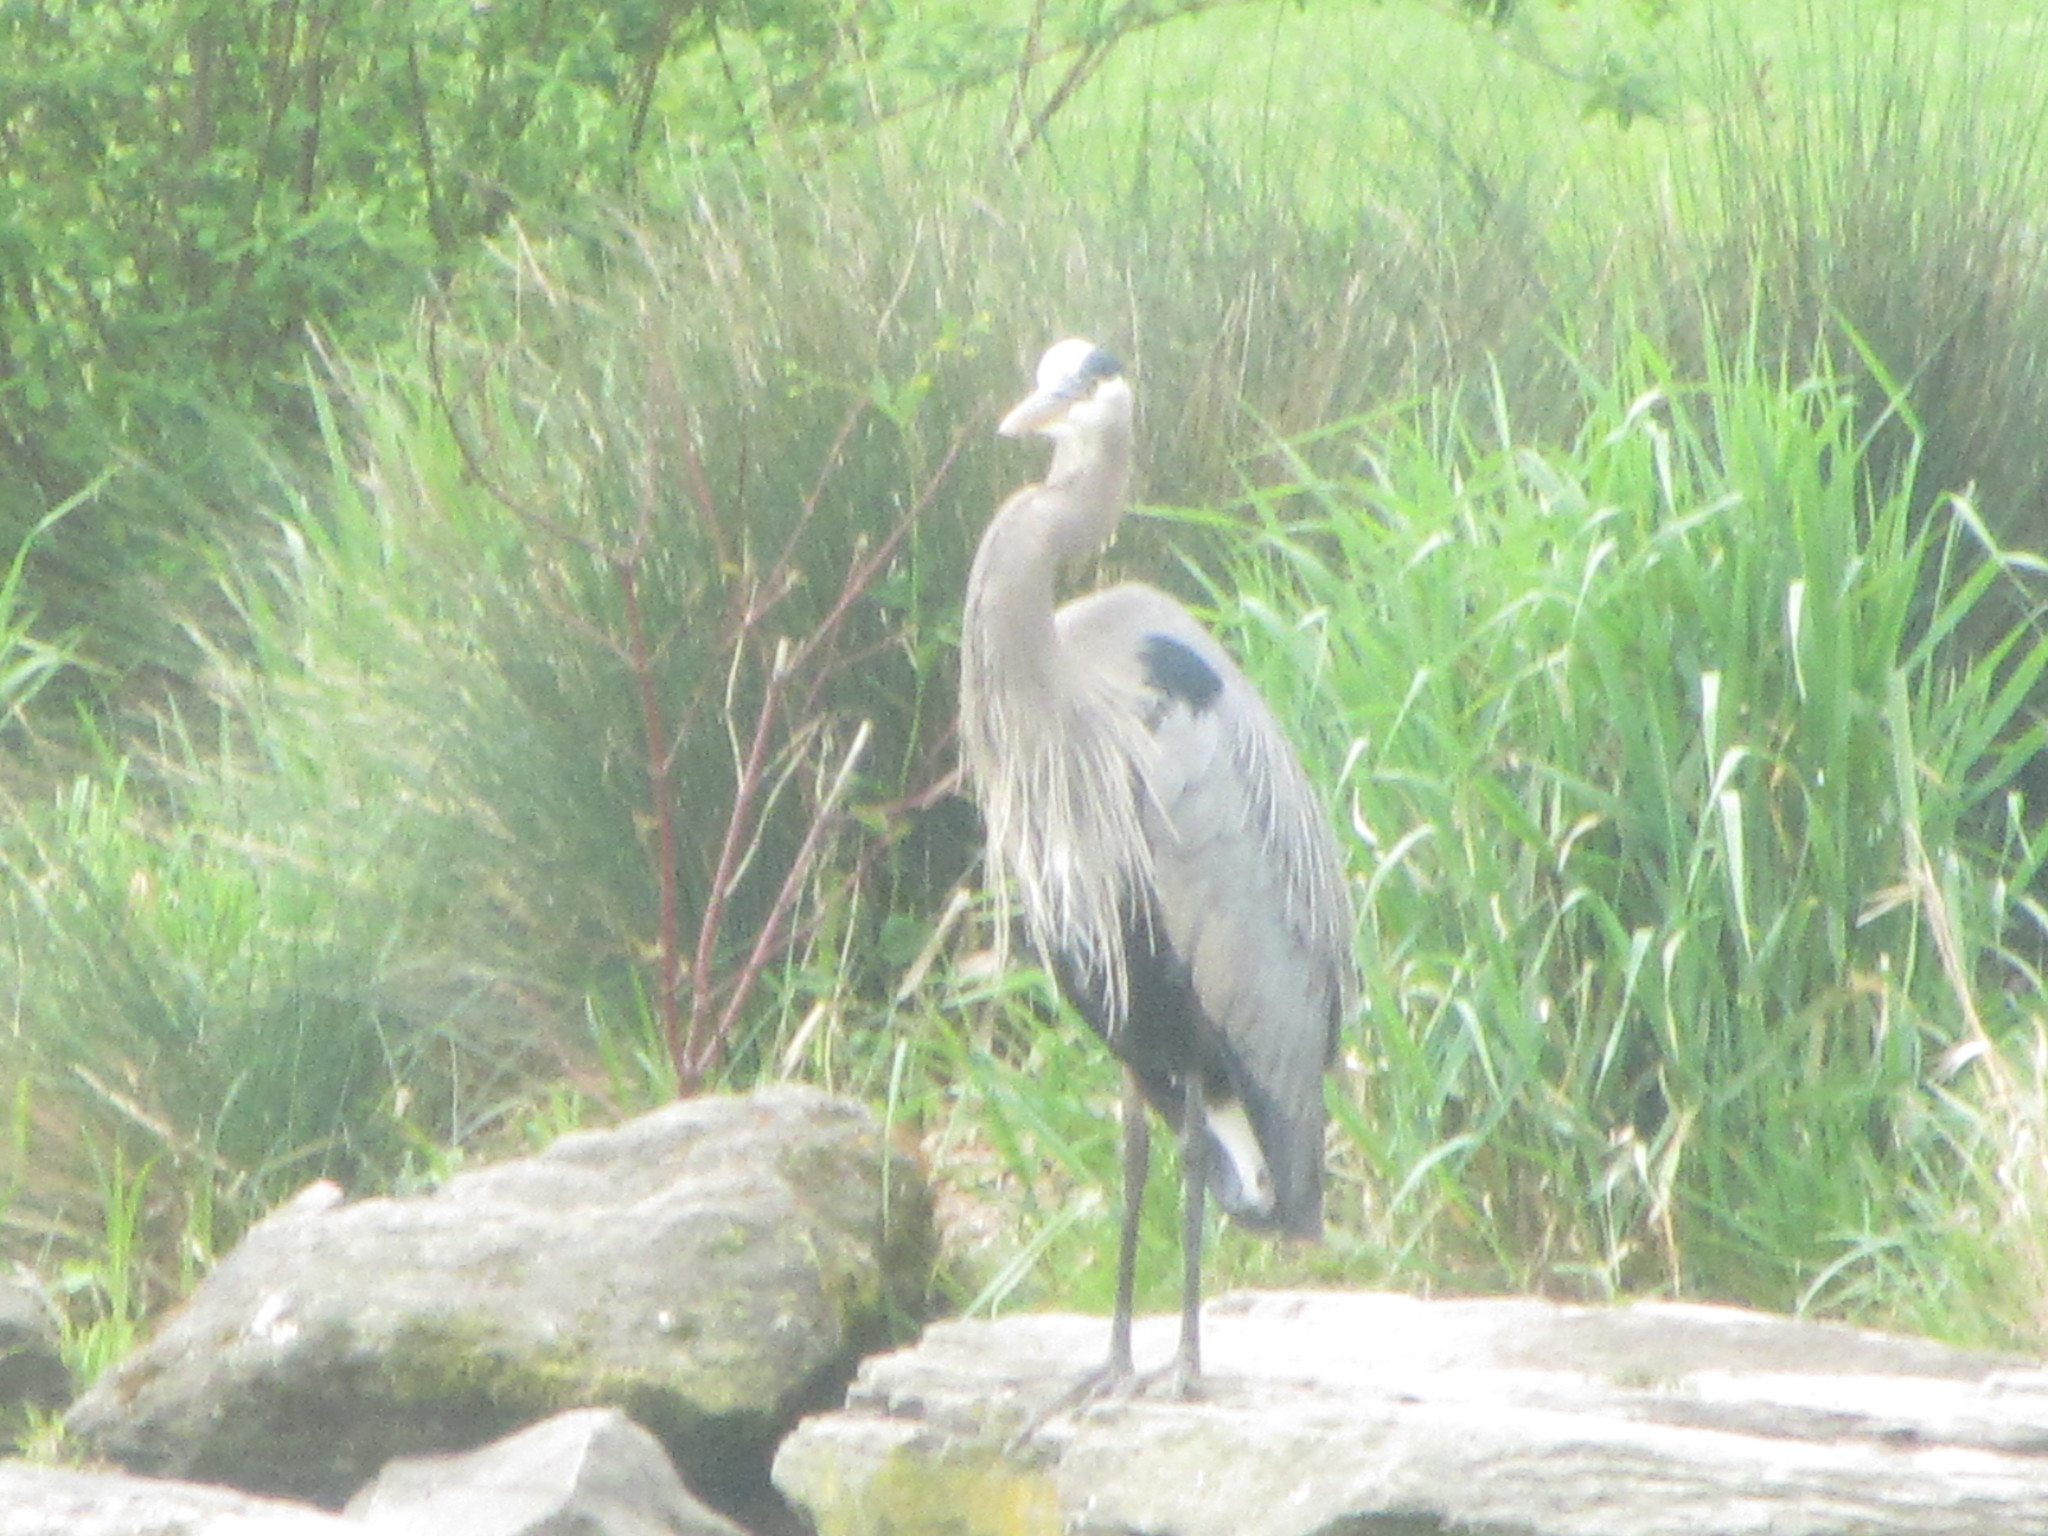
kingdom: Animalia
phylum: Chordata
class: Aves
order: Pelecaniformes
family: Ardeidae
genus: Ardea
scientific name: Ardea herodias
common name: Great blue heron
